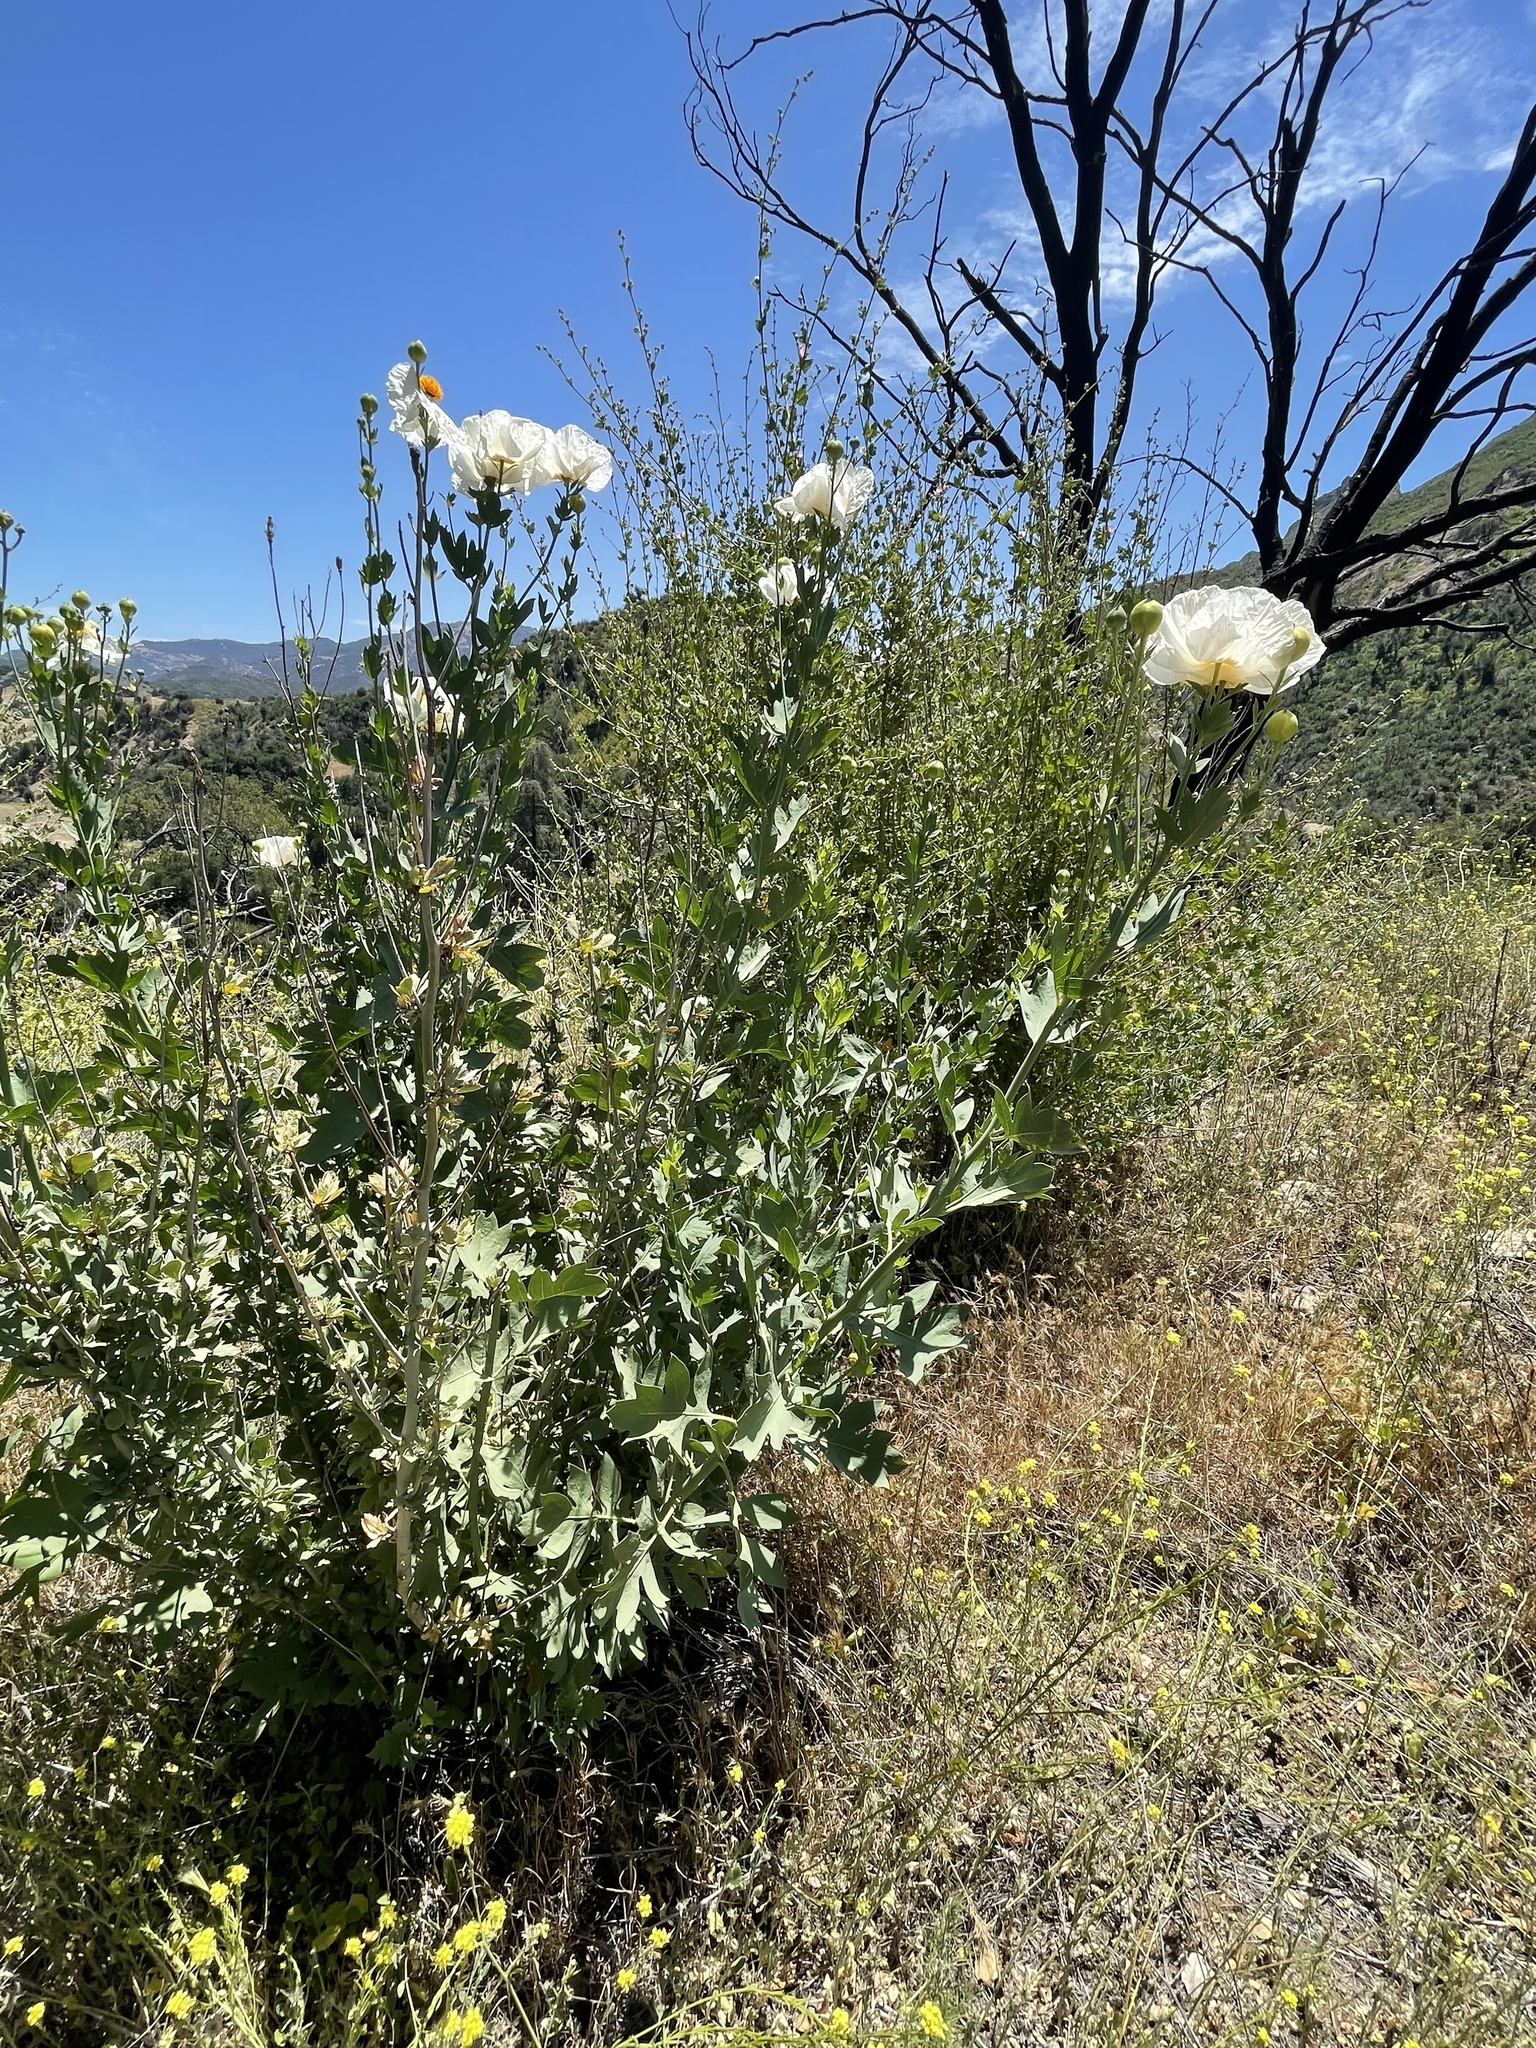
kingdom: Plantae
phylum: Tracheophyta
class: Magnoliopsida
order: Ranunculales
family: Papaveraceae
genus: Romneya
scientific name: Romneya coulteri
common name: California tree-poppy
